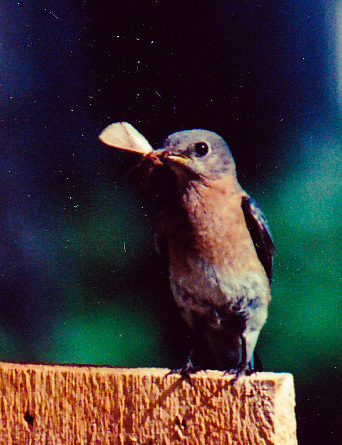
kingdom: Animalia
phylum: Chordata
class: Aves
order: Passeriformes
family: Turdidae
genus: Sialia
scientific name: Sialia sialis
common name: Eastern bluebird
